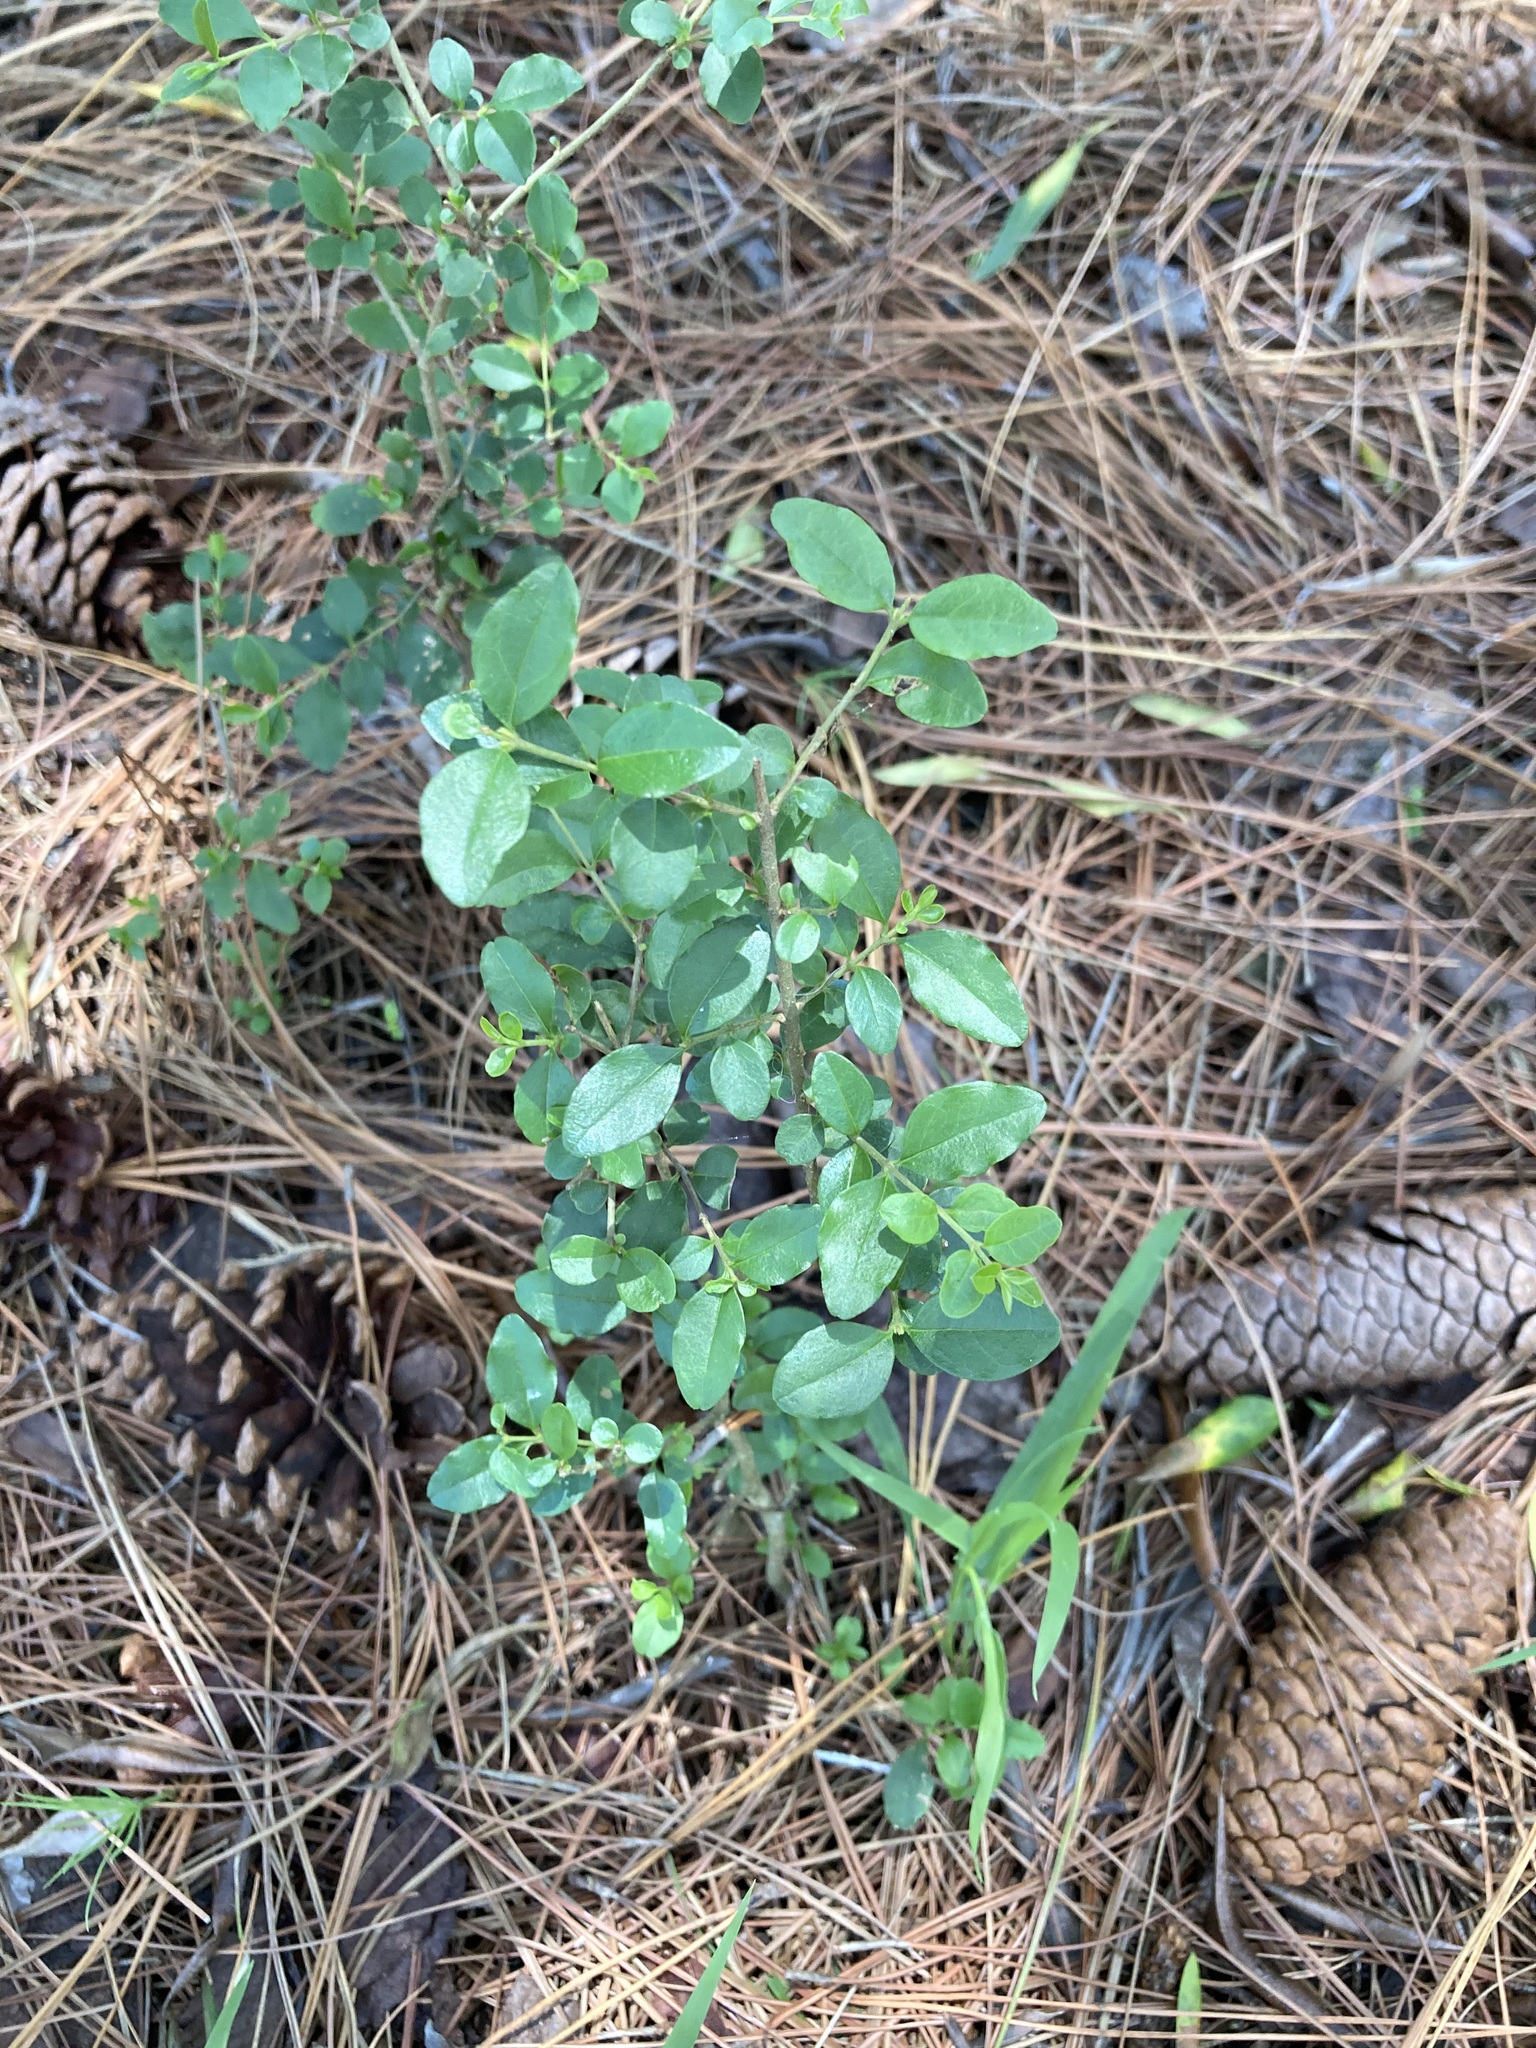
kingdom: Plantae
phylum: Tracheophyta
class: Magnoliopsida
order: Lamiales
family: Oleaceae
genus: Ligustrum
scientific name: Ligustrum sinense
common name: Chinese privet
